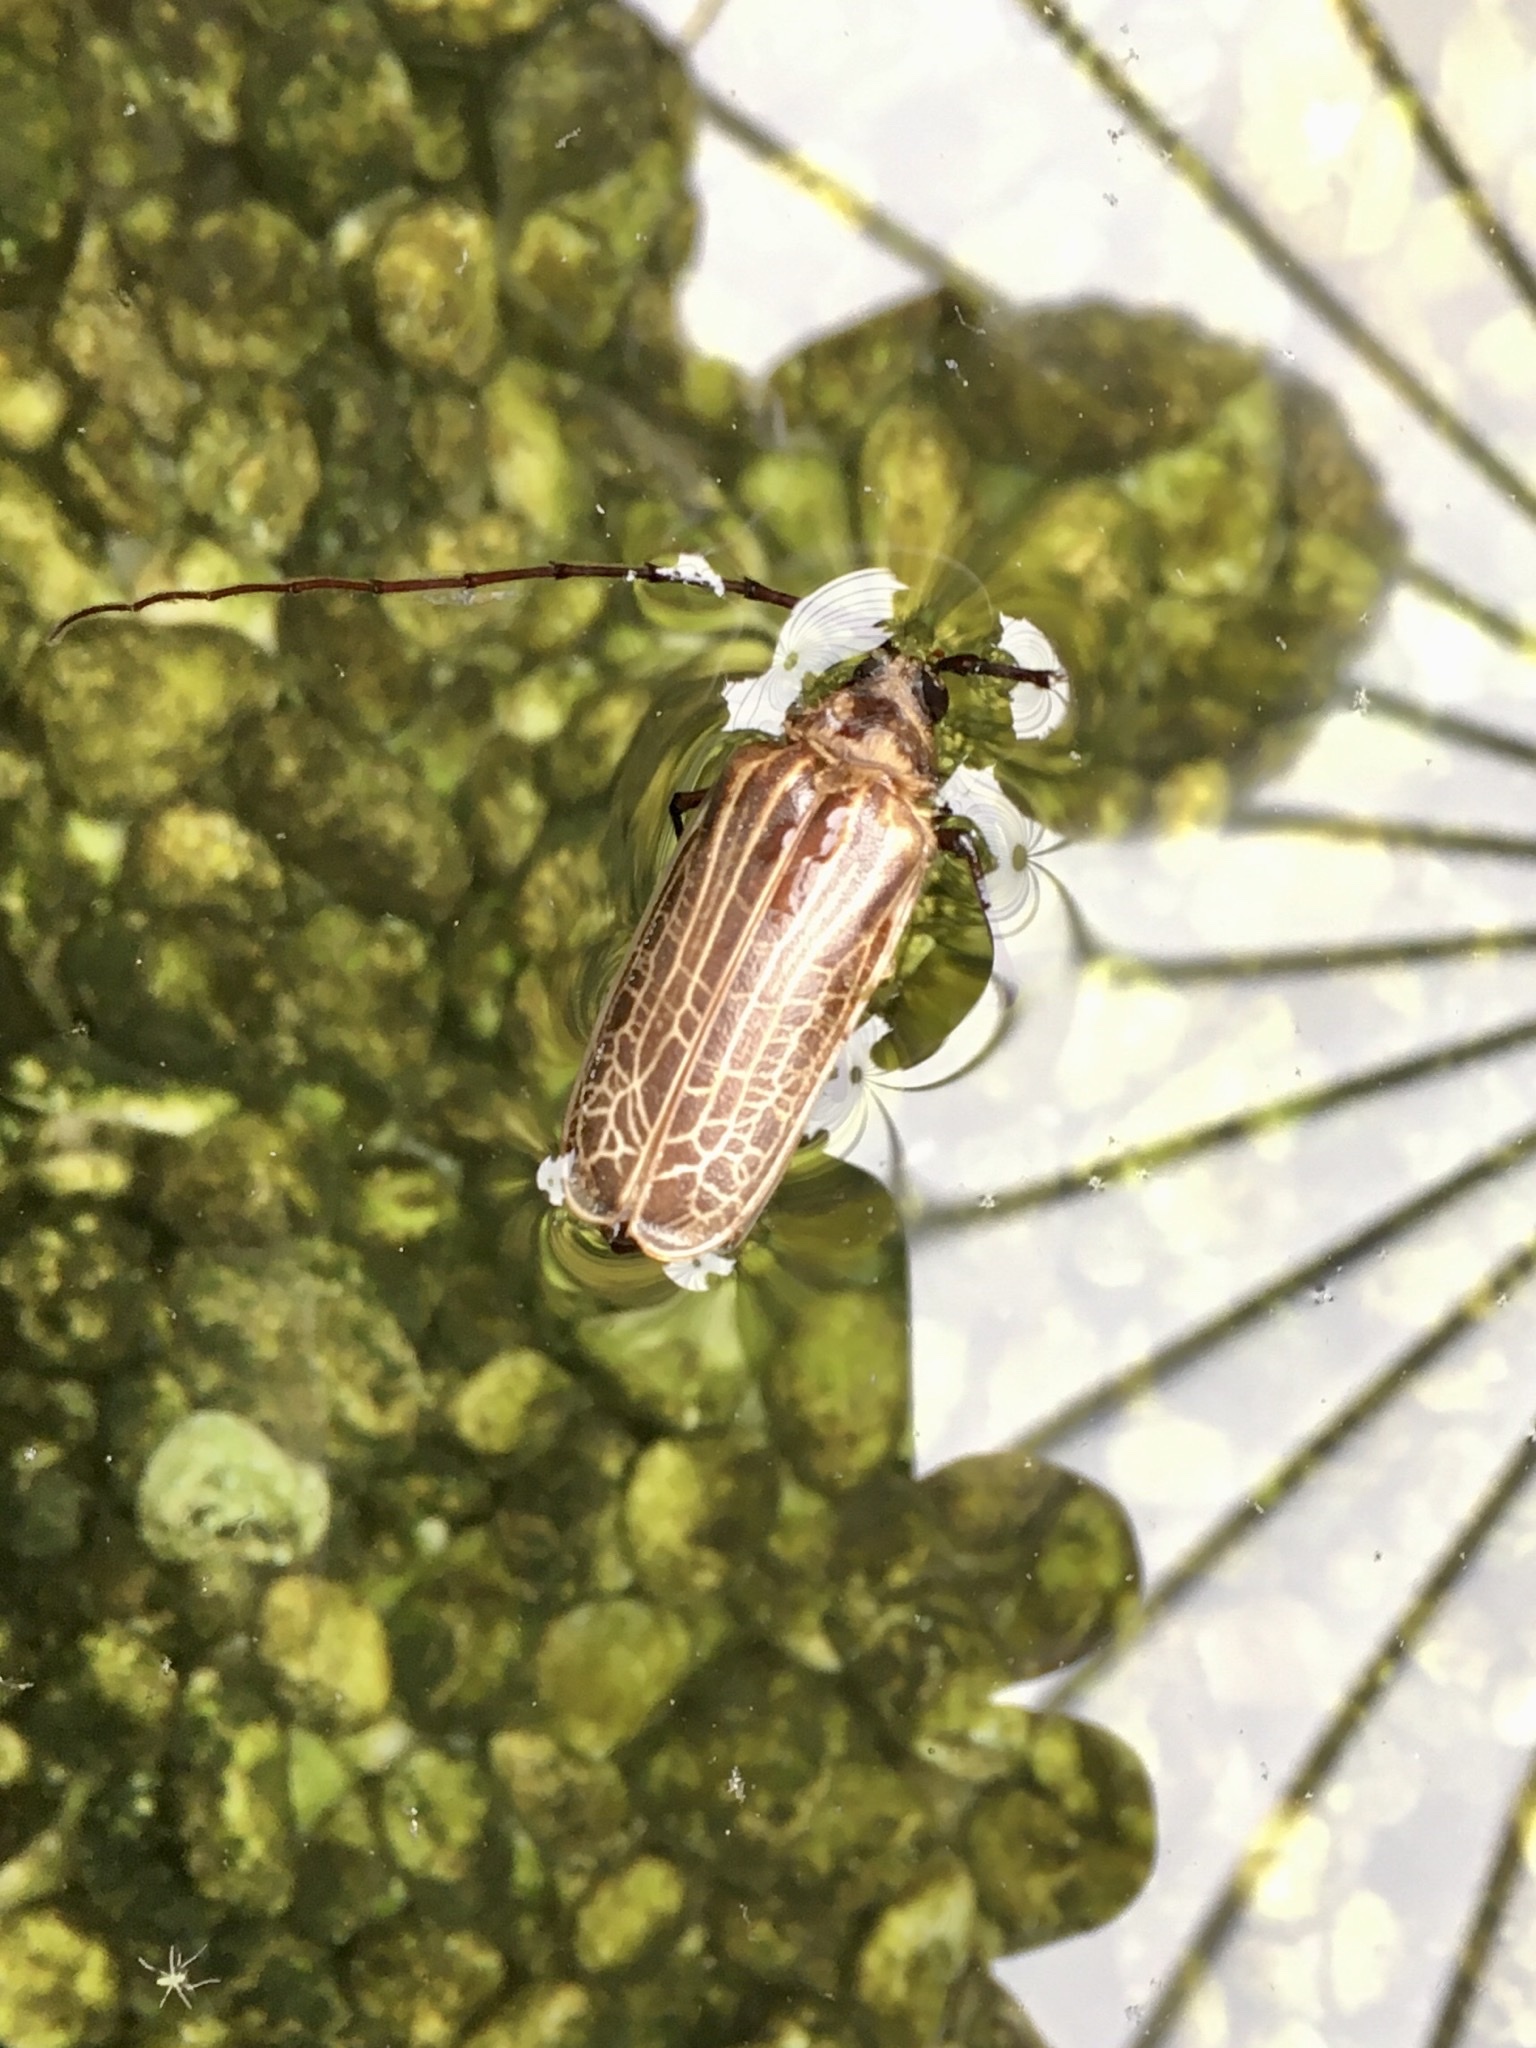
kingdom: Animalia
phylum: Arthropoda
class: Insecta
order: Coleoptera
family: Cerambycidae
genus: Prionoplus
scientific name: Prionoplus reticularis
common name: Huhu beetle
